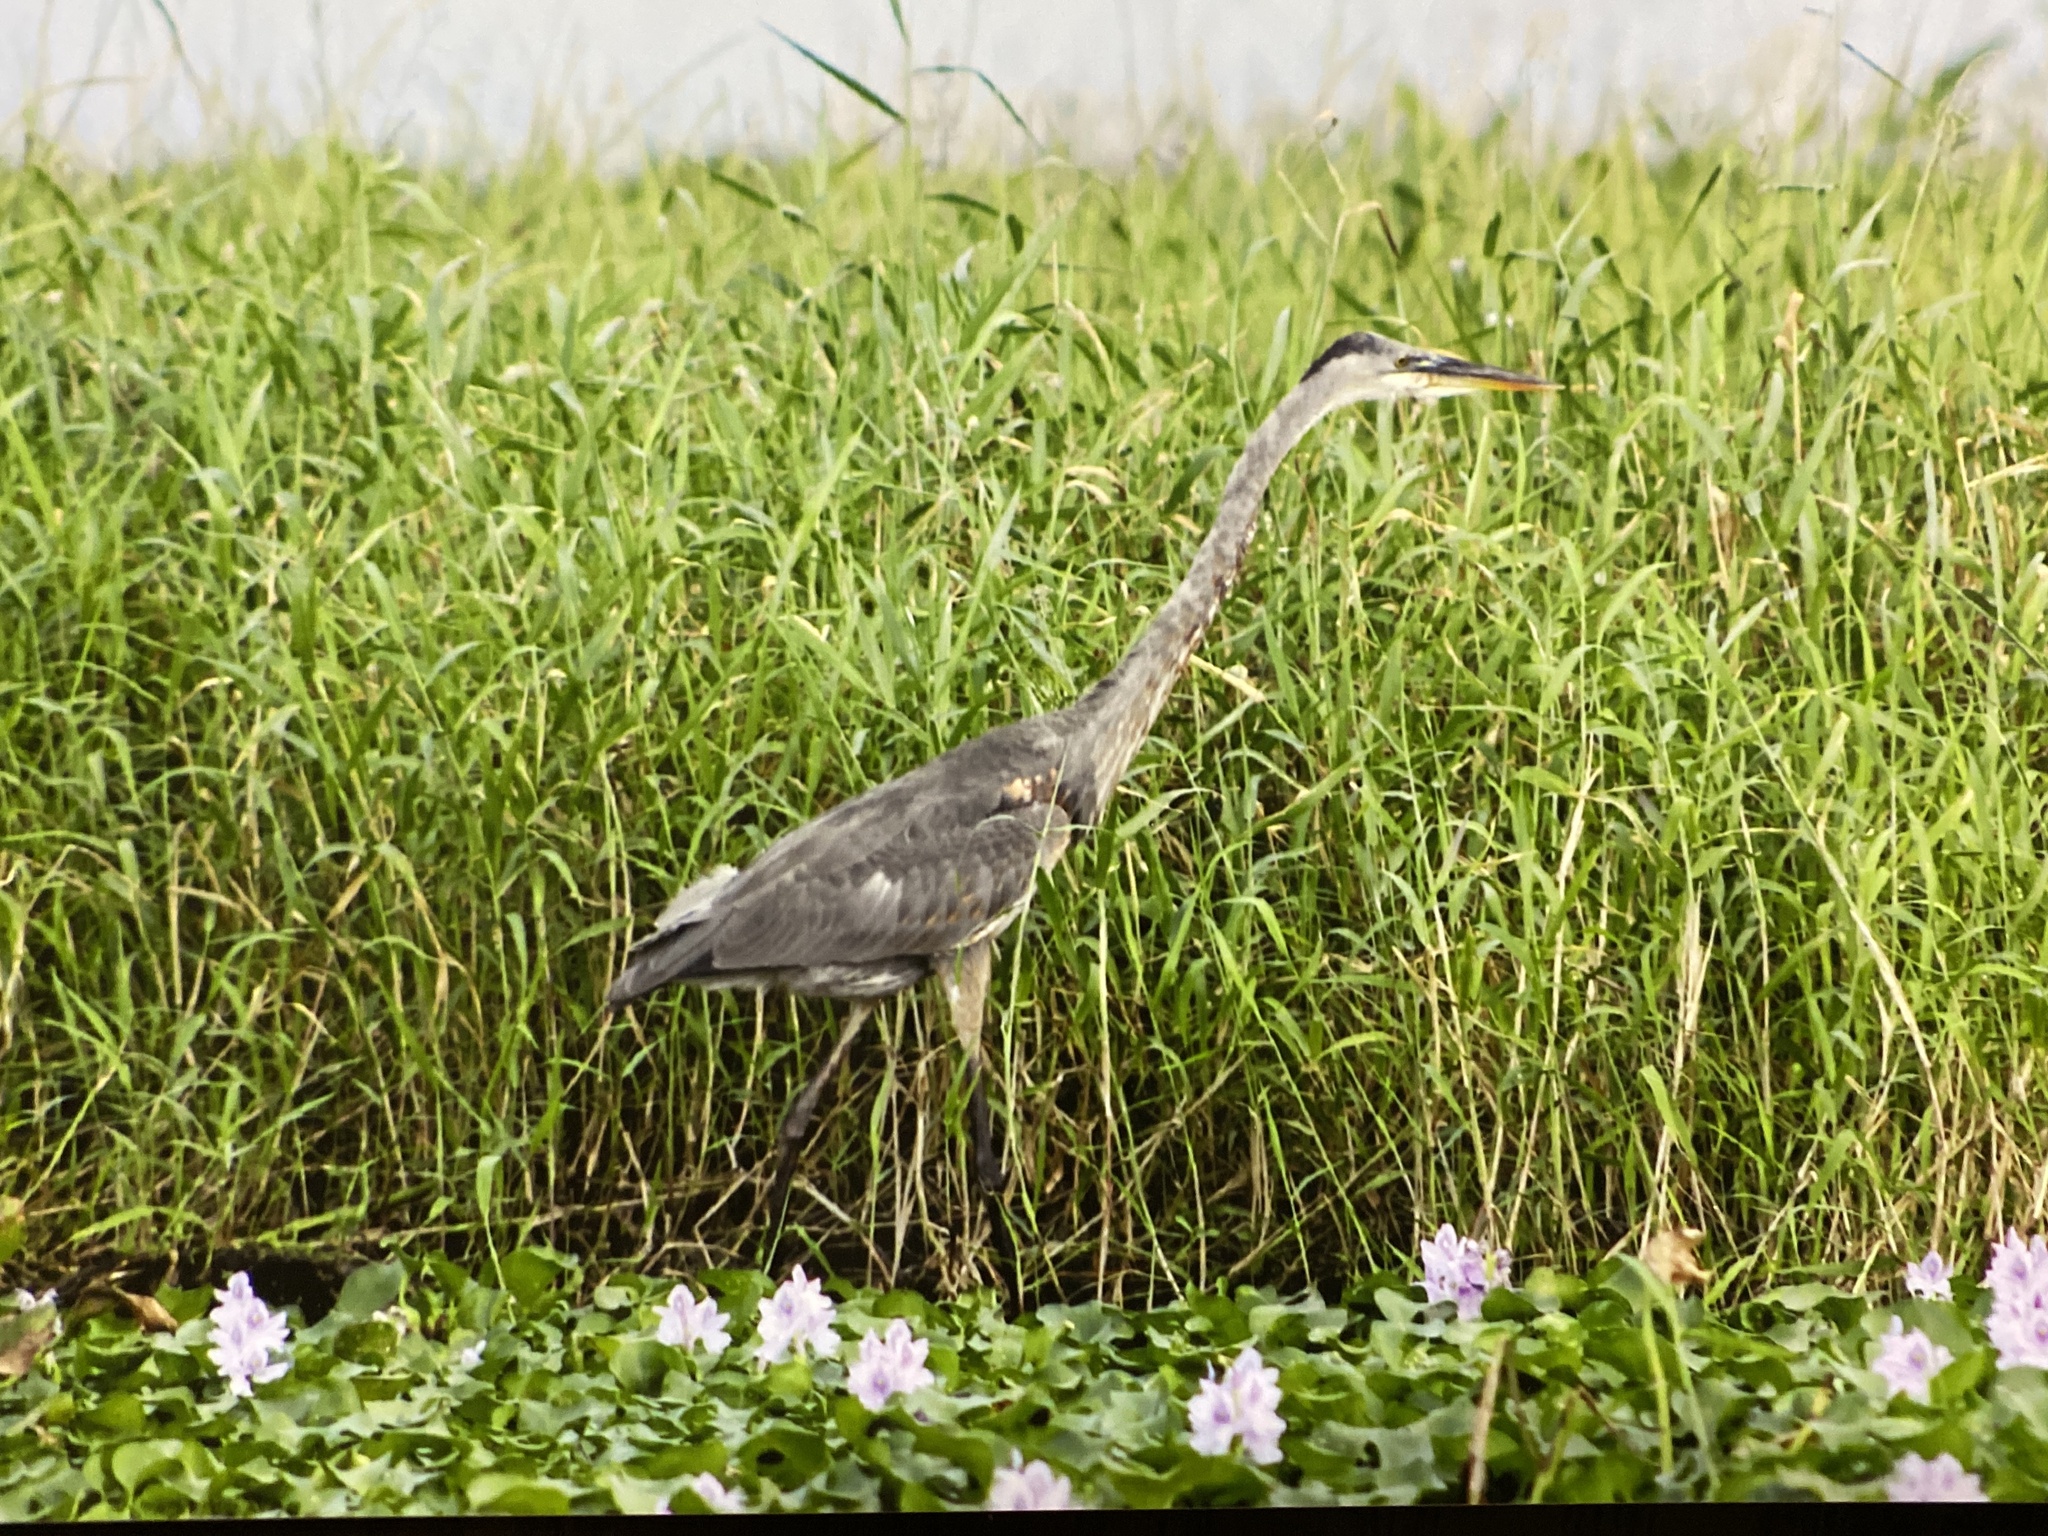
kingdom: Animalia
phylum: Chordata
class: Aves
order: Pelecaniformes
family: Ardeidae
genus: Ardea
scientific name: Ardea herodias
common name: Great blue heron
